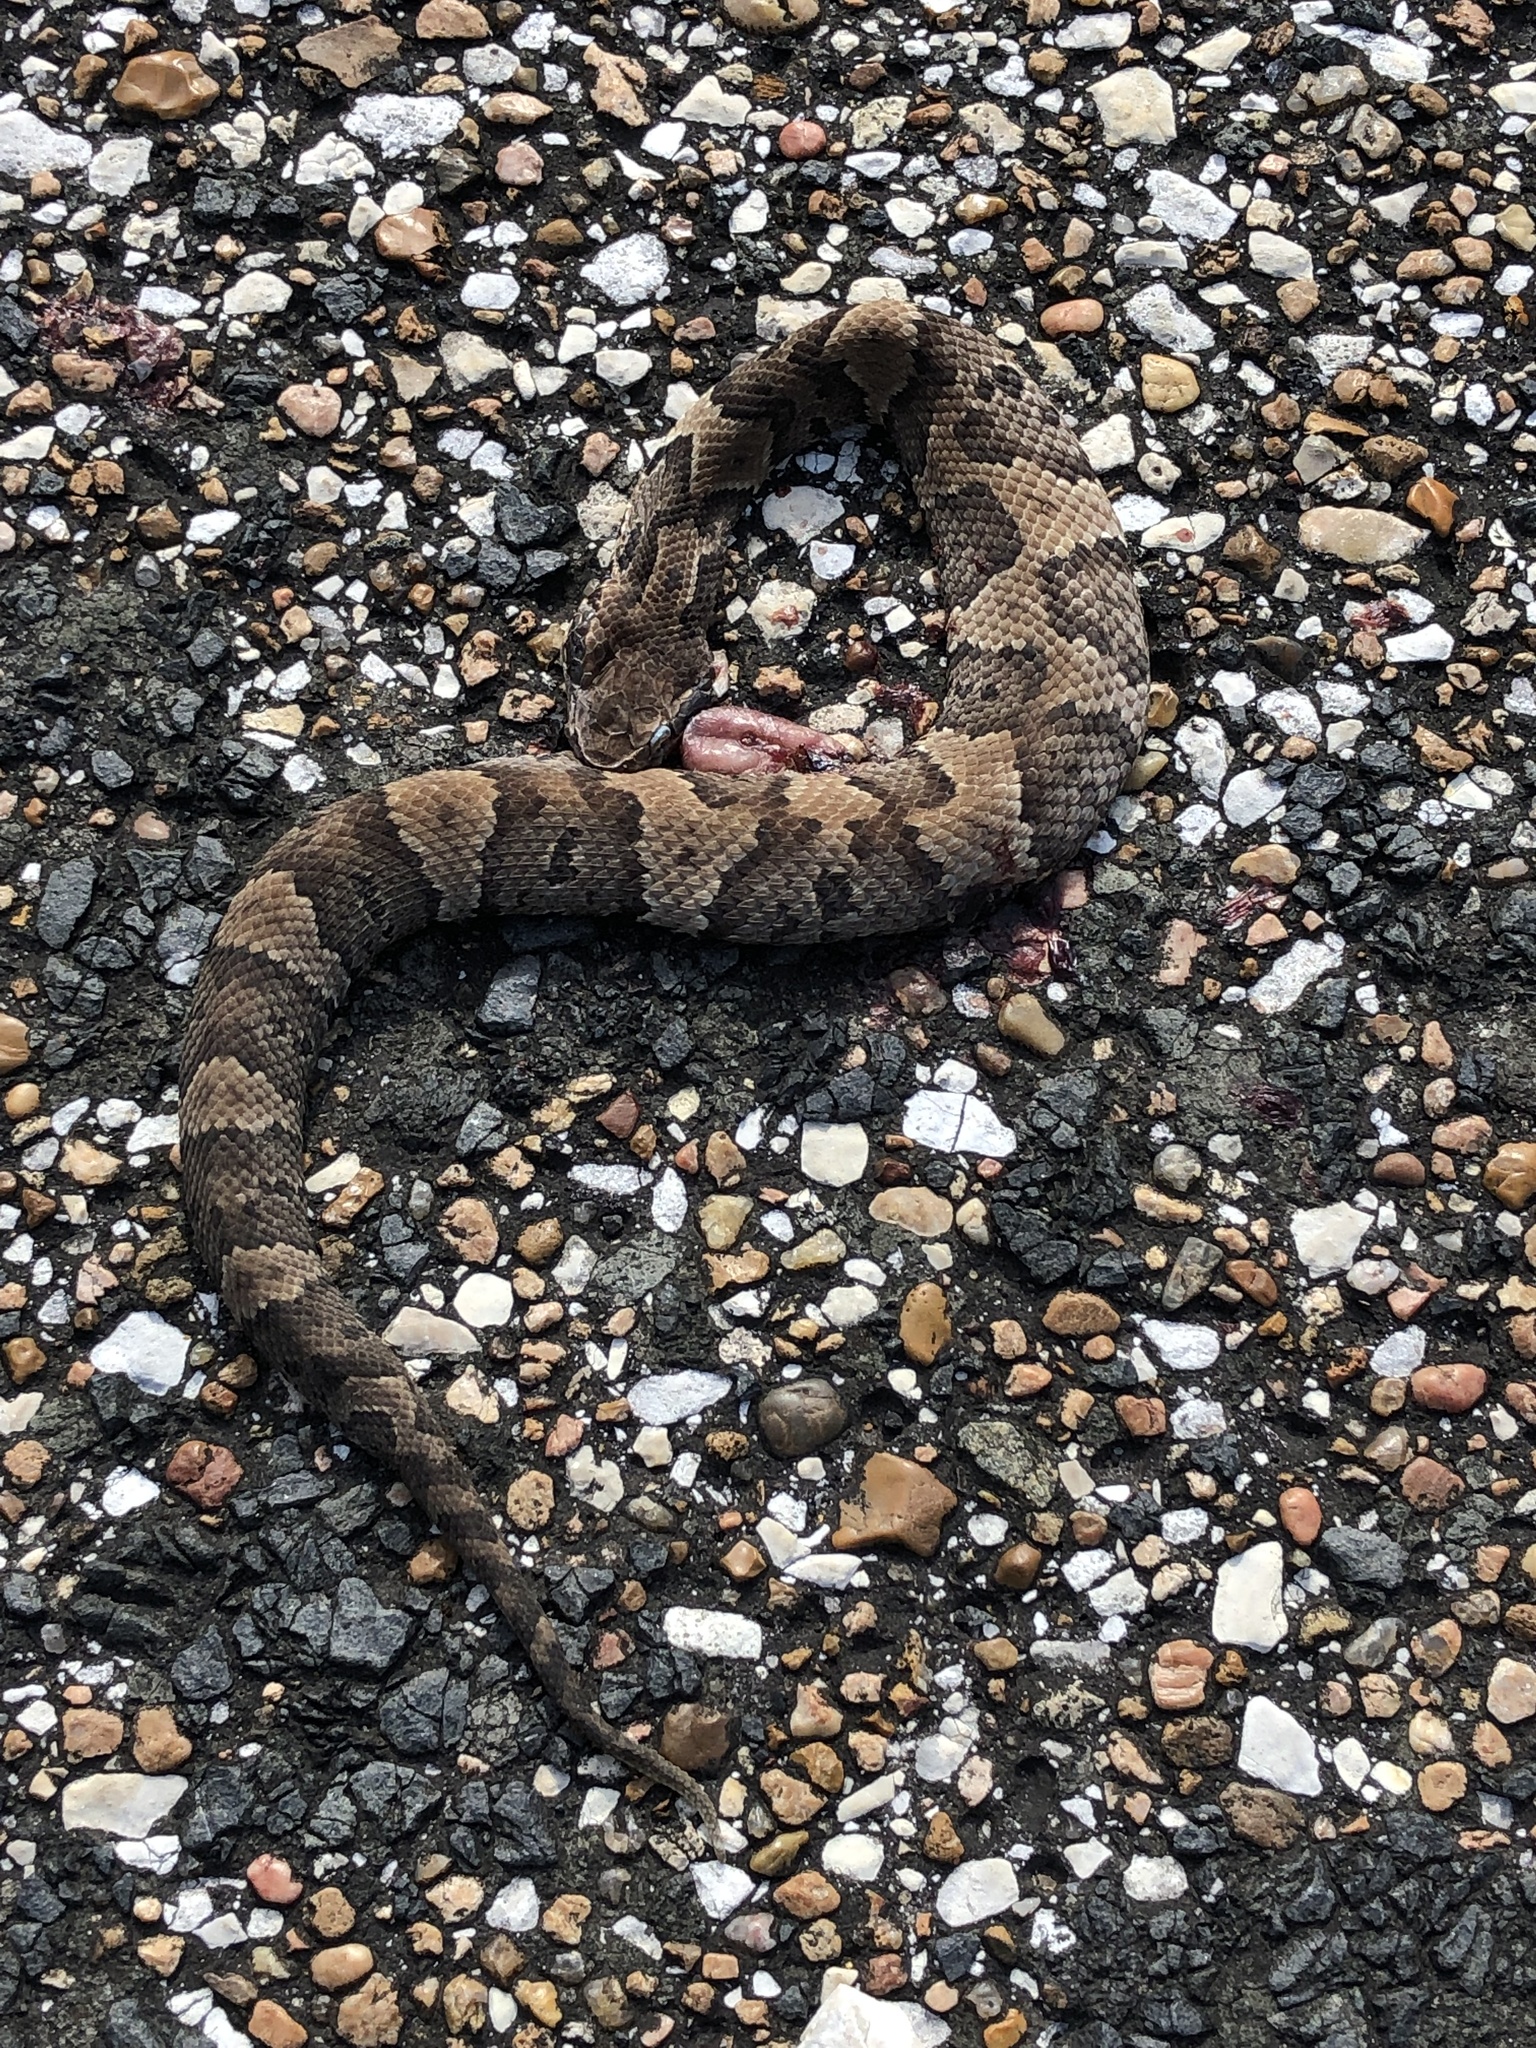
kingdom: Animalia
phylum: Chordata
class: Squamata
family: Viperidae
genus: Agkistrodon
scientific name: Agkistrodon piscivorus
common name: Cottonmouth
